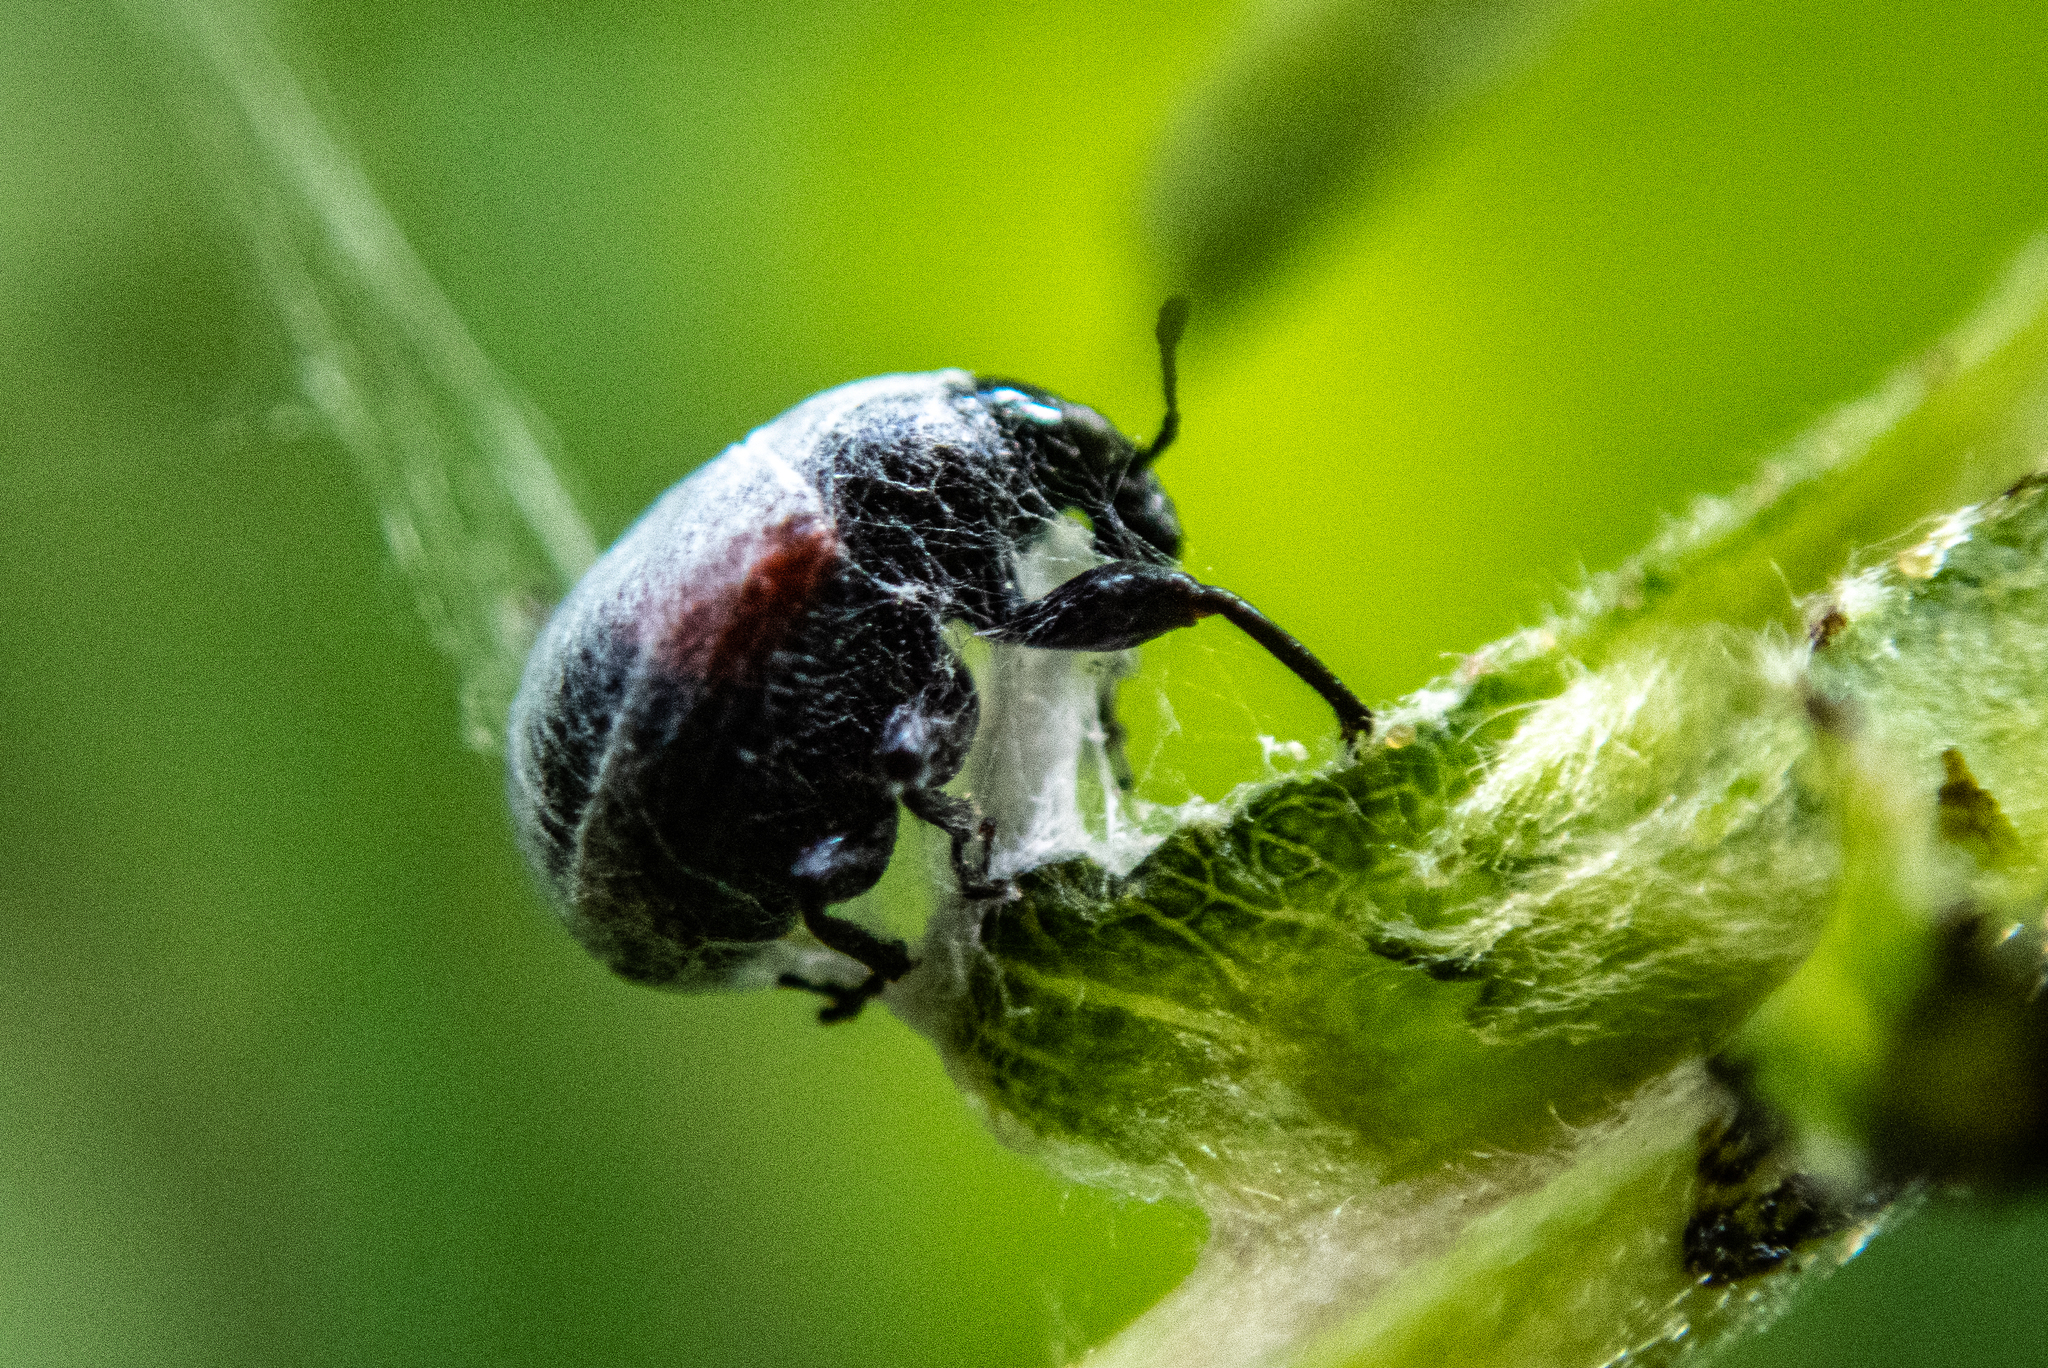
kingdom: Animalia
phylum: Arthropoda
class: Insecta
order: Coleoptera
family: Attelabidae
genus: Attelabus
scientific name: Attelabus bipustulatus
